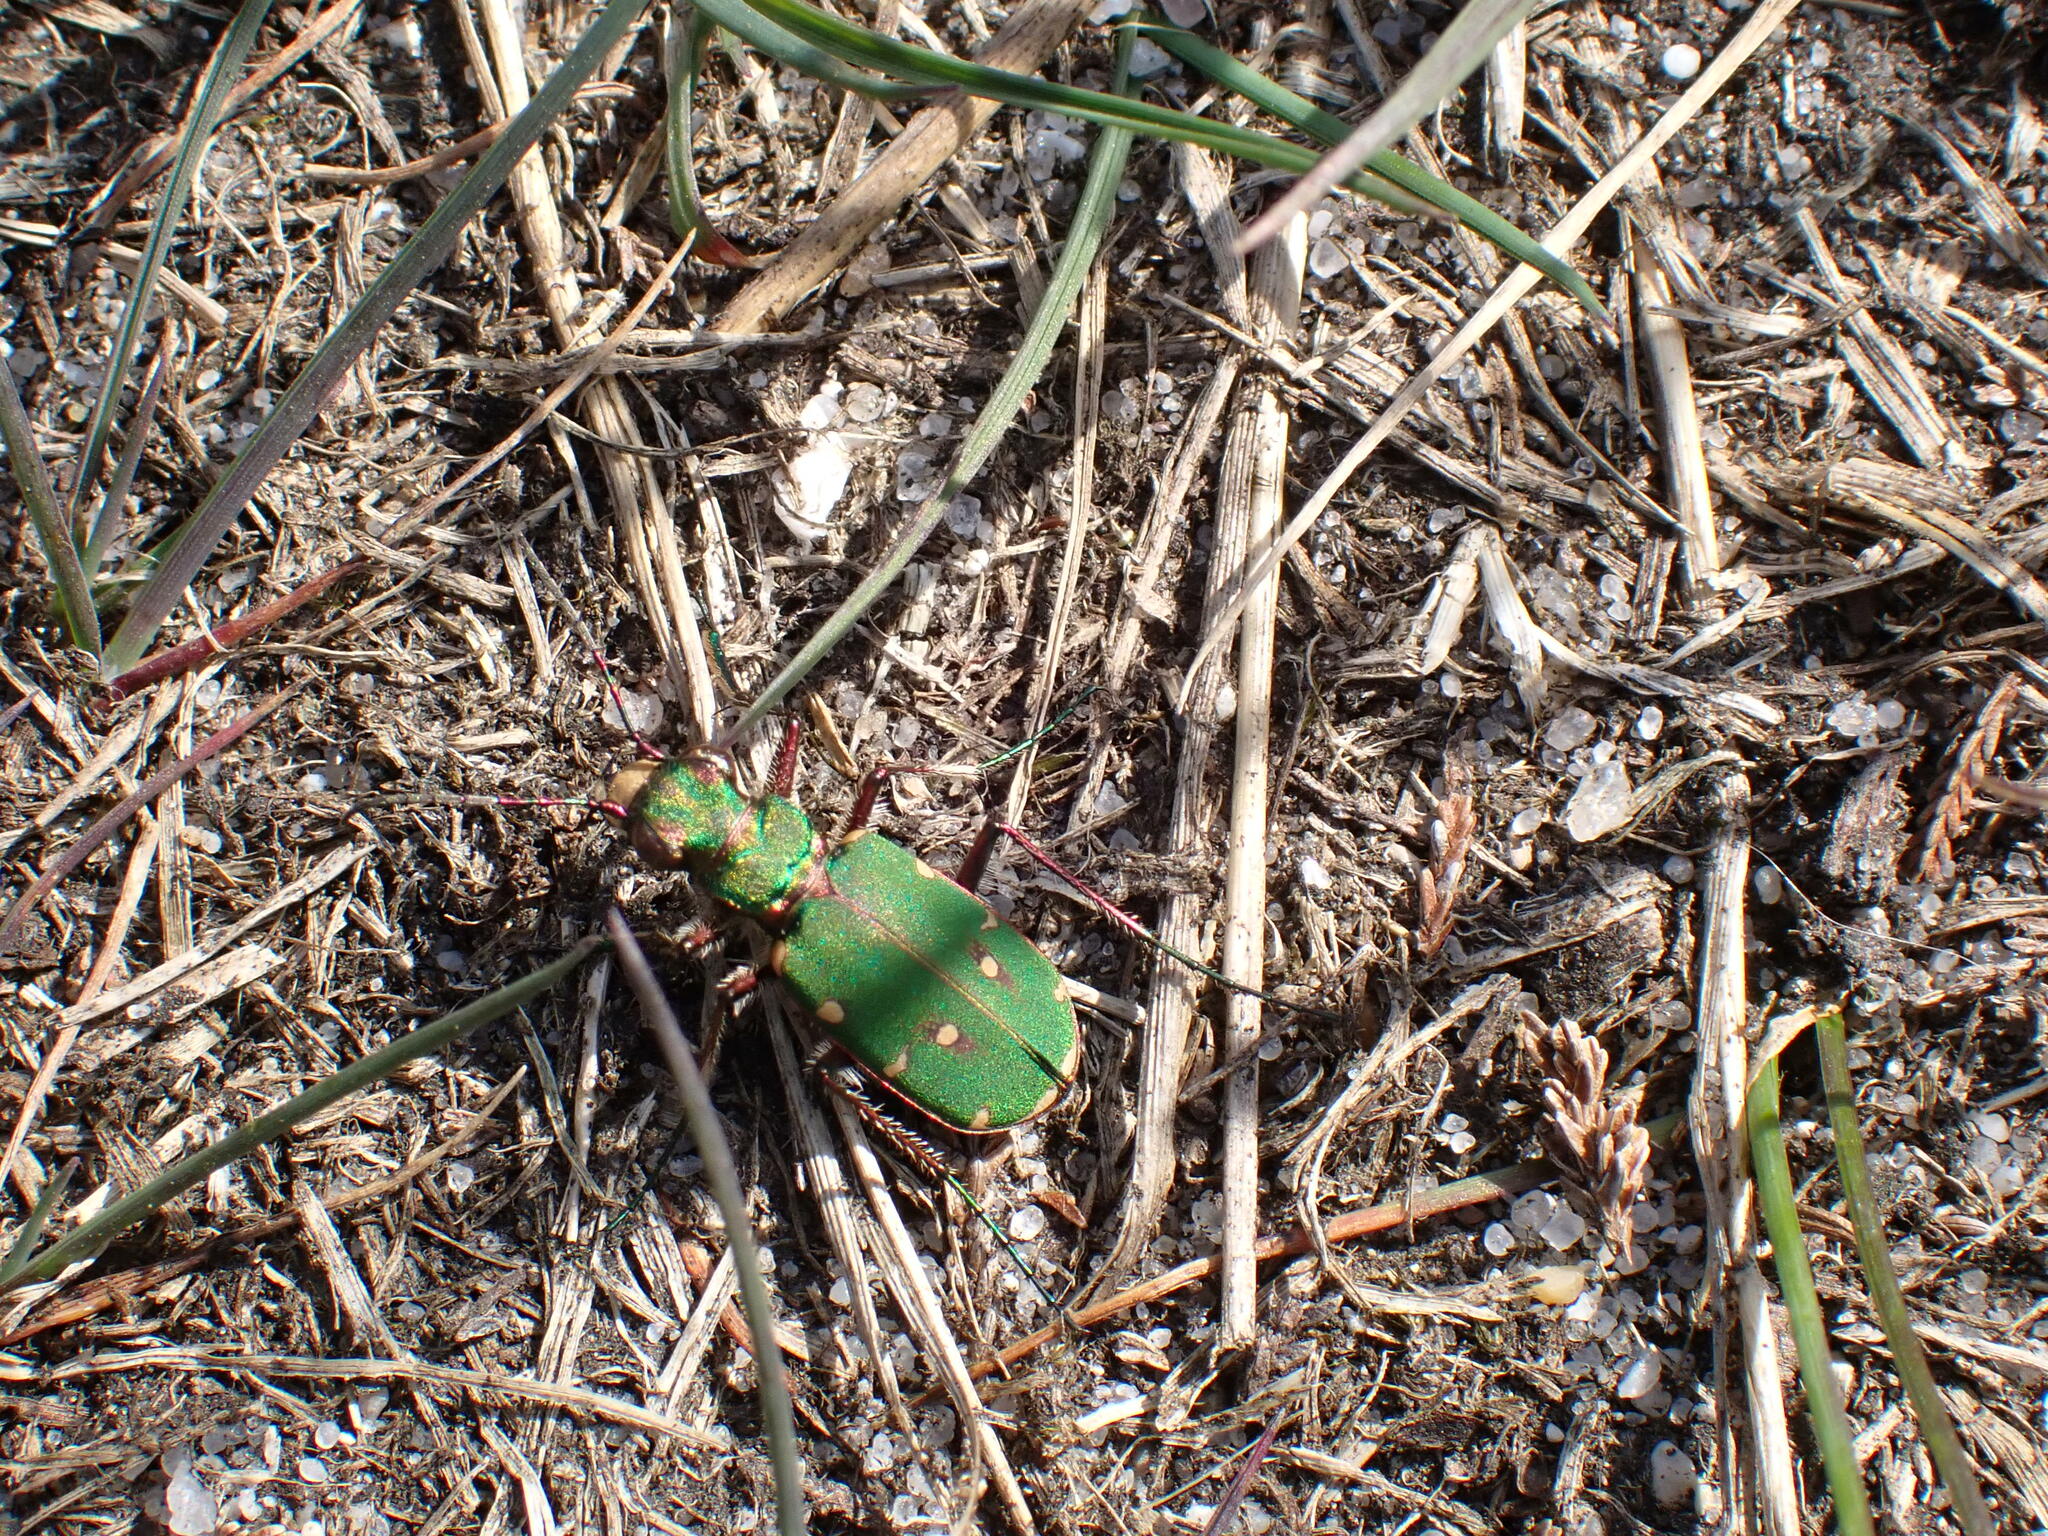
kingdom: Animalia
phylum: Arthropoda
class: Insecta
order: Coleoptera
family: Carabidae
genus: Cicindela
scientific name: Cicindela campestris
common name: Common tiger beetle
